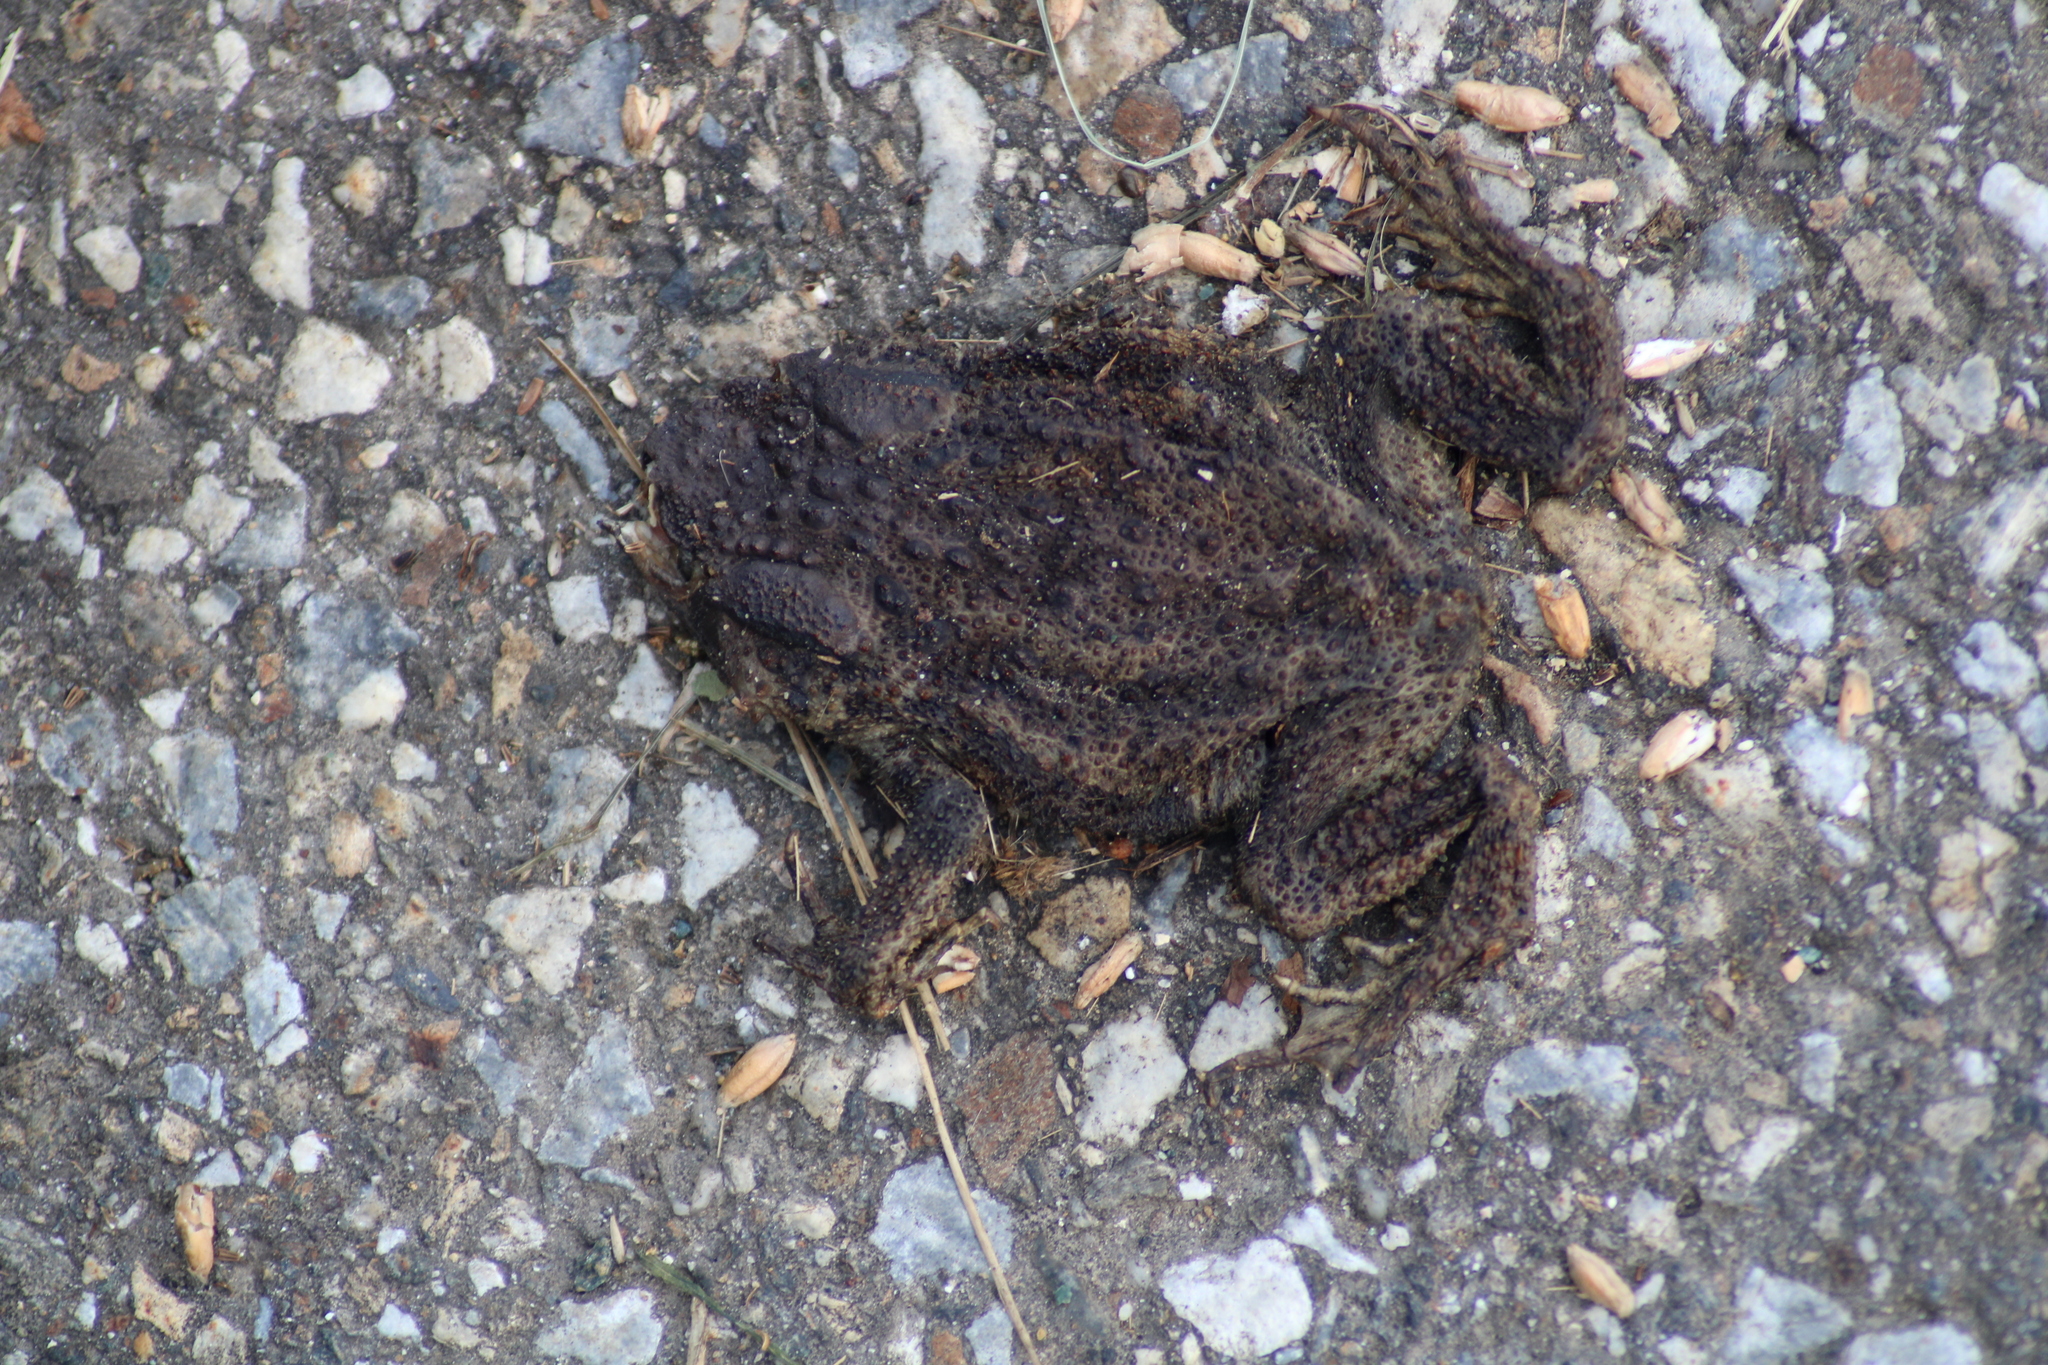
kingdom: Animalia
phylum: Chordata
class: Amphibia
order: Anura
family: Bufonidae
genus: Bufo
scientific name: Bufo bufo
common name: Common toad
